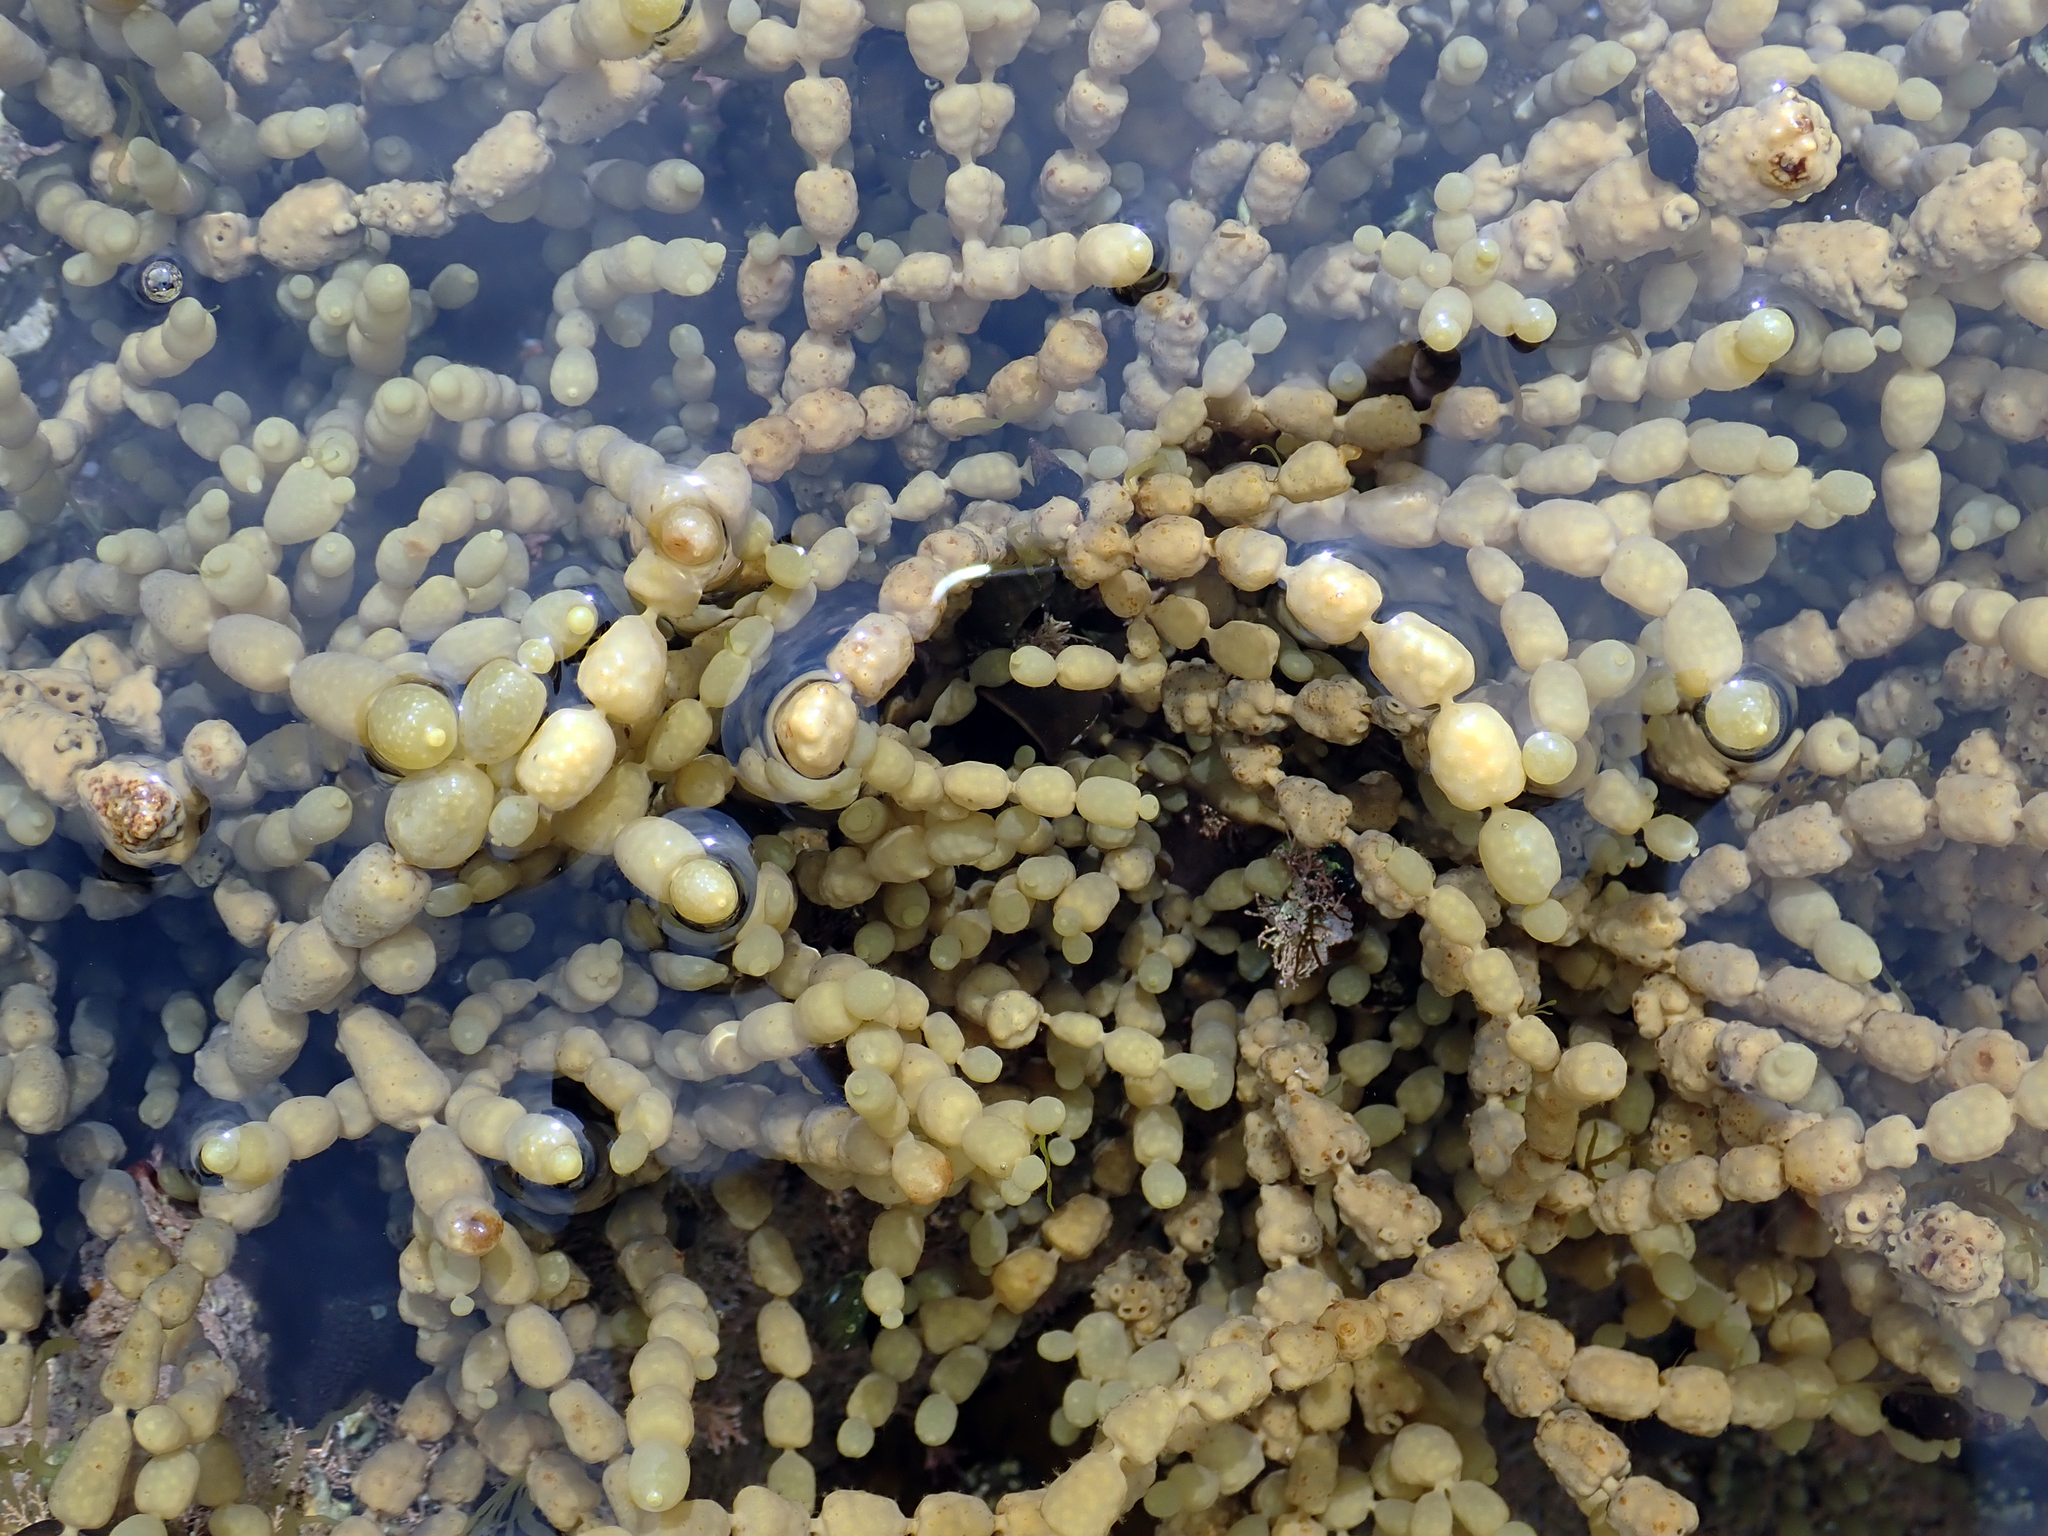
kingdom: Chromista
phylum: Ochrophyta
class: Phaeophyceae
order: Fucales
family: Hormosiraceae
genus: Hormosira
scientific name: Hormosira banksii
